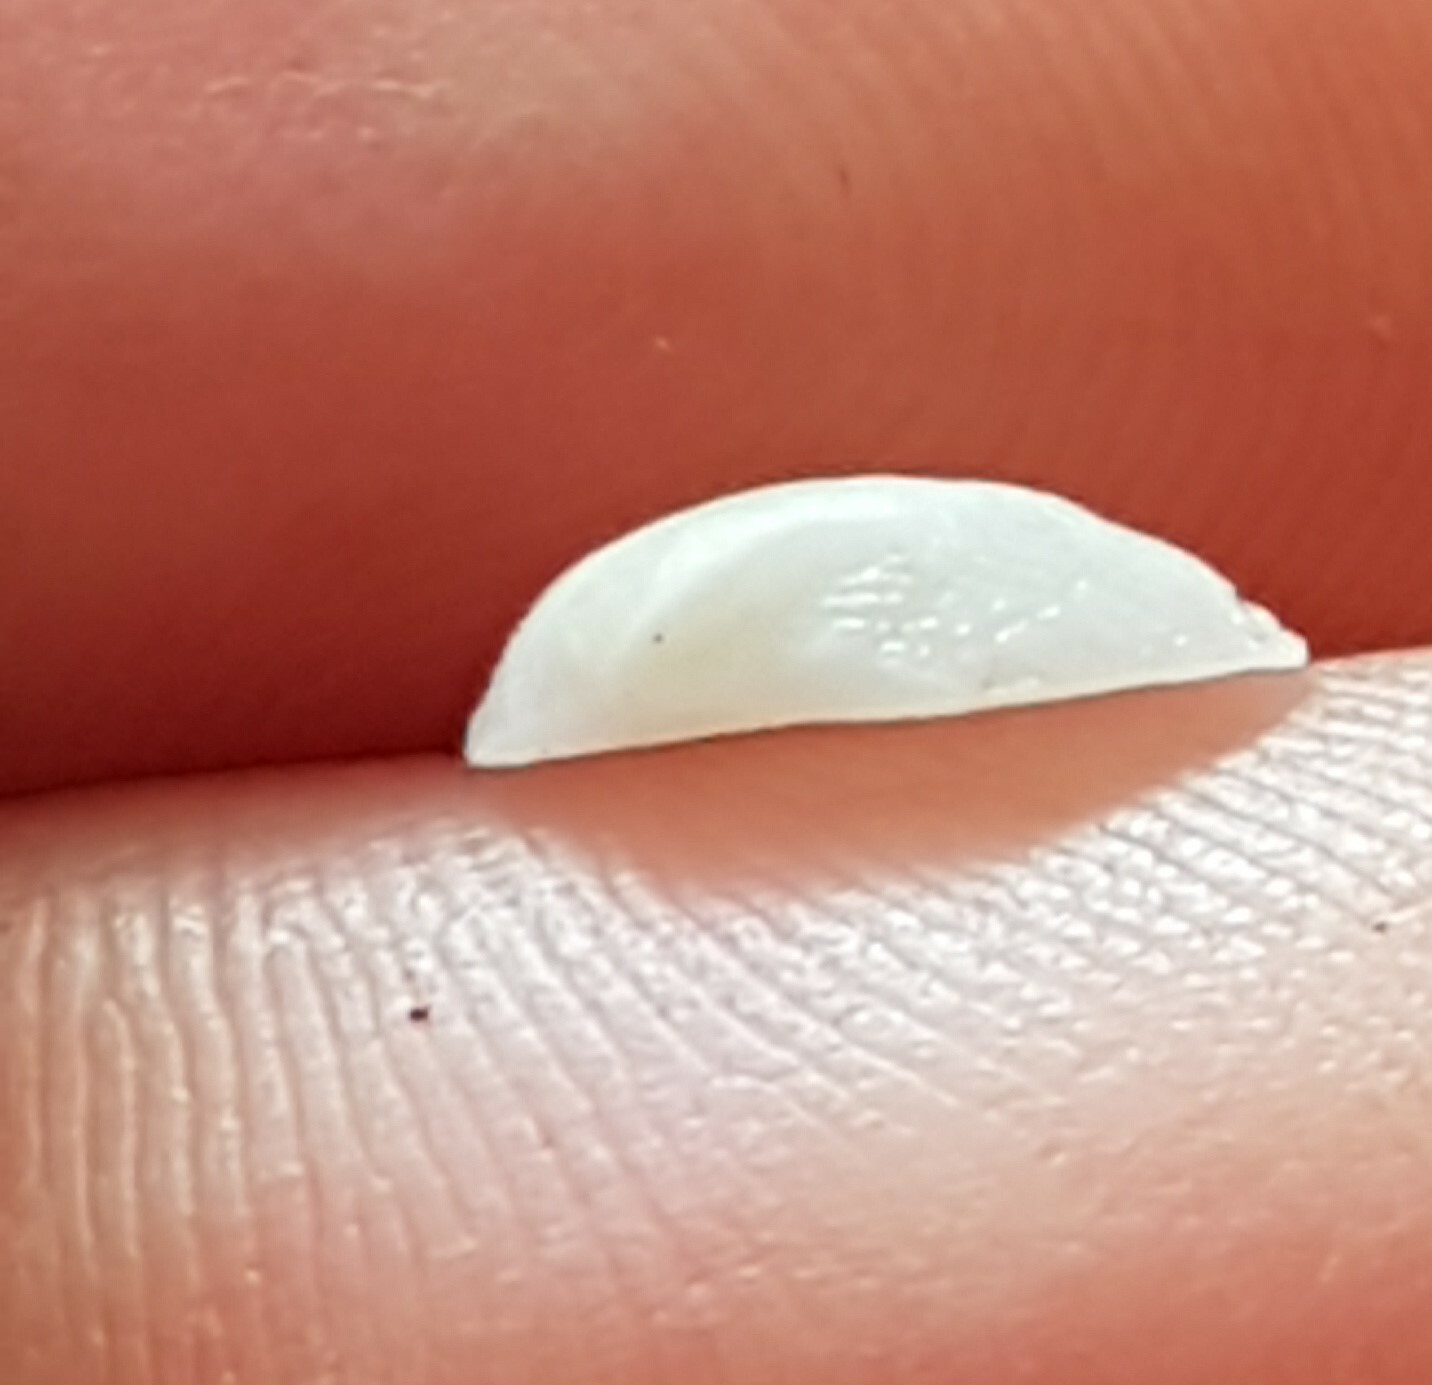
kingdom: Animalia
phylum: Mollusca
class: Bivalvia
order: Arcida
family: Noetiidae
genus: Striarca
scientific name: Striarca lactea
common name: Milky-white ark
